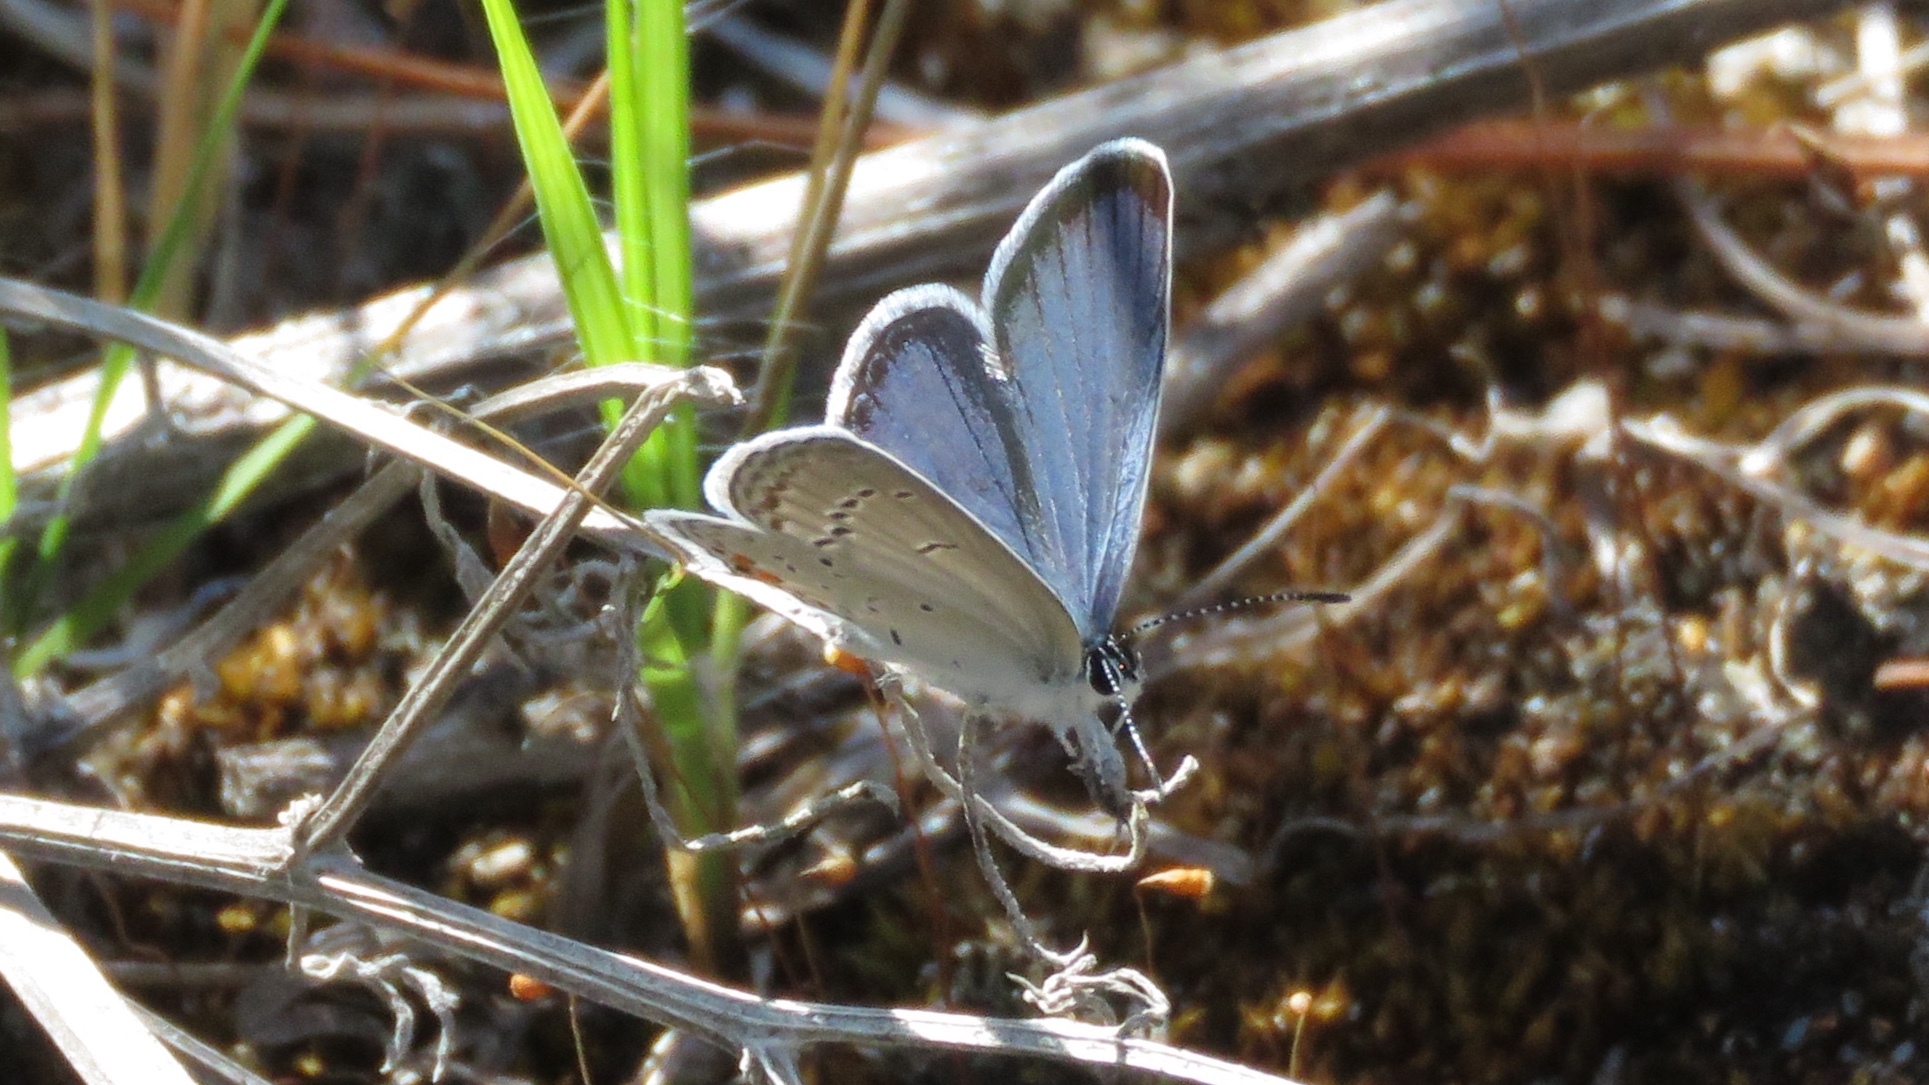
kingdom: Animalia
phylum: Arthropoda
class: Insecta
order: Lepidoptera
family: Lycaenidae
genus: Elkalyce
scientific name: Elkalyce comyntas
